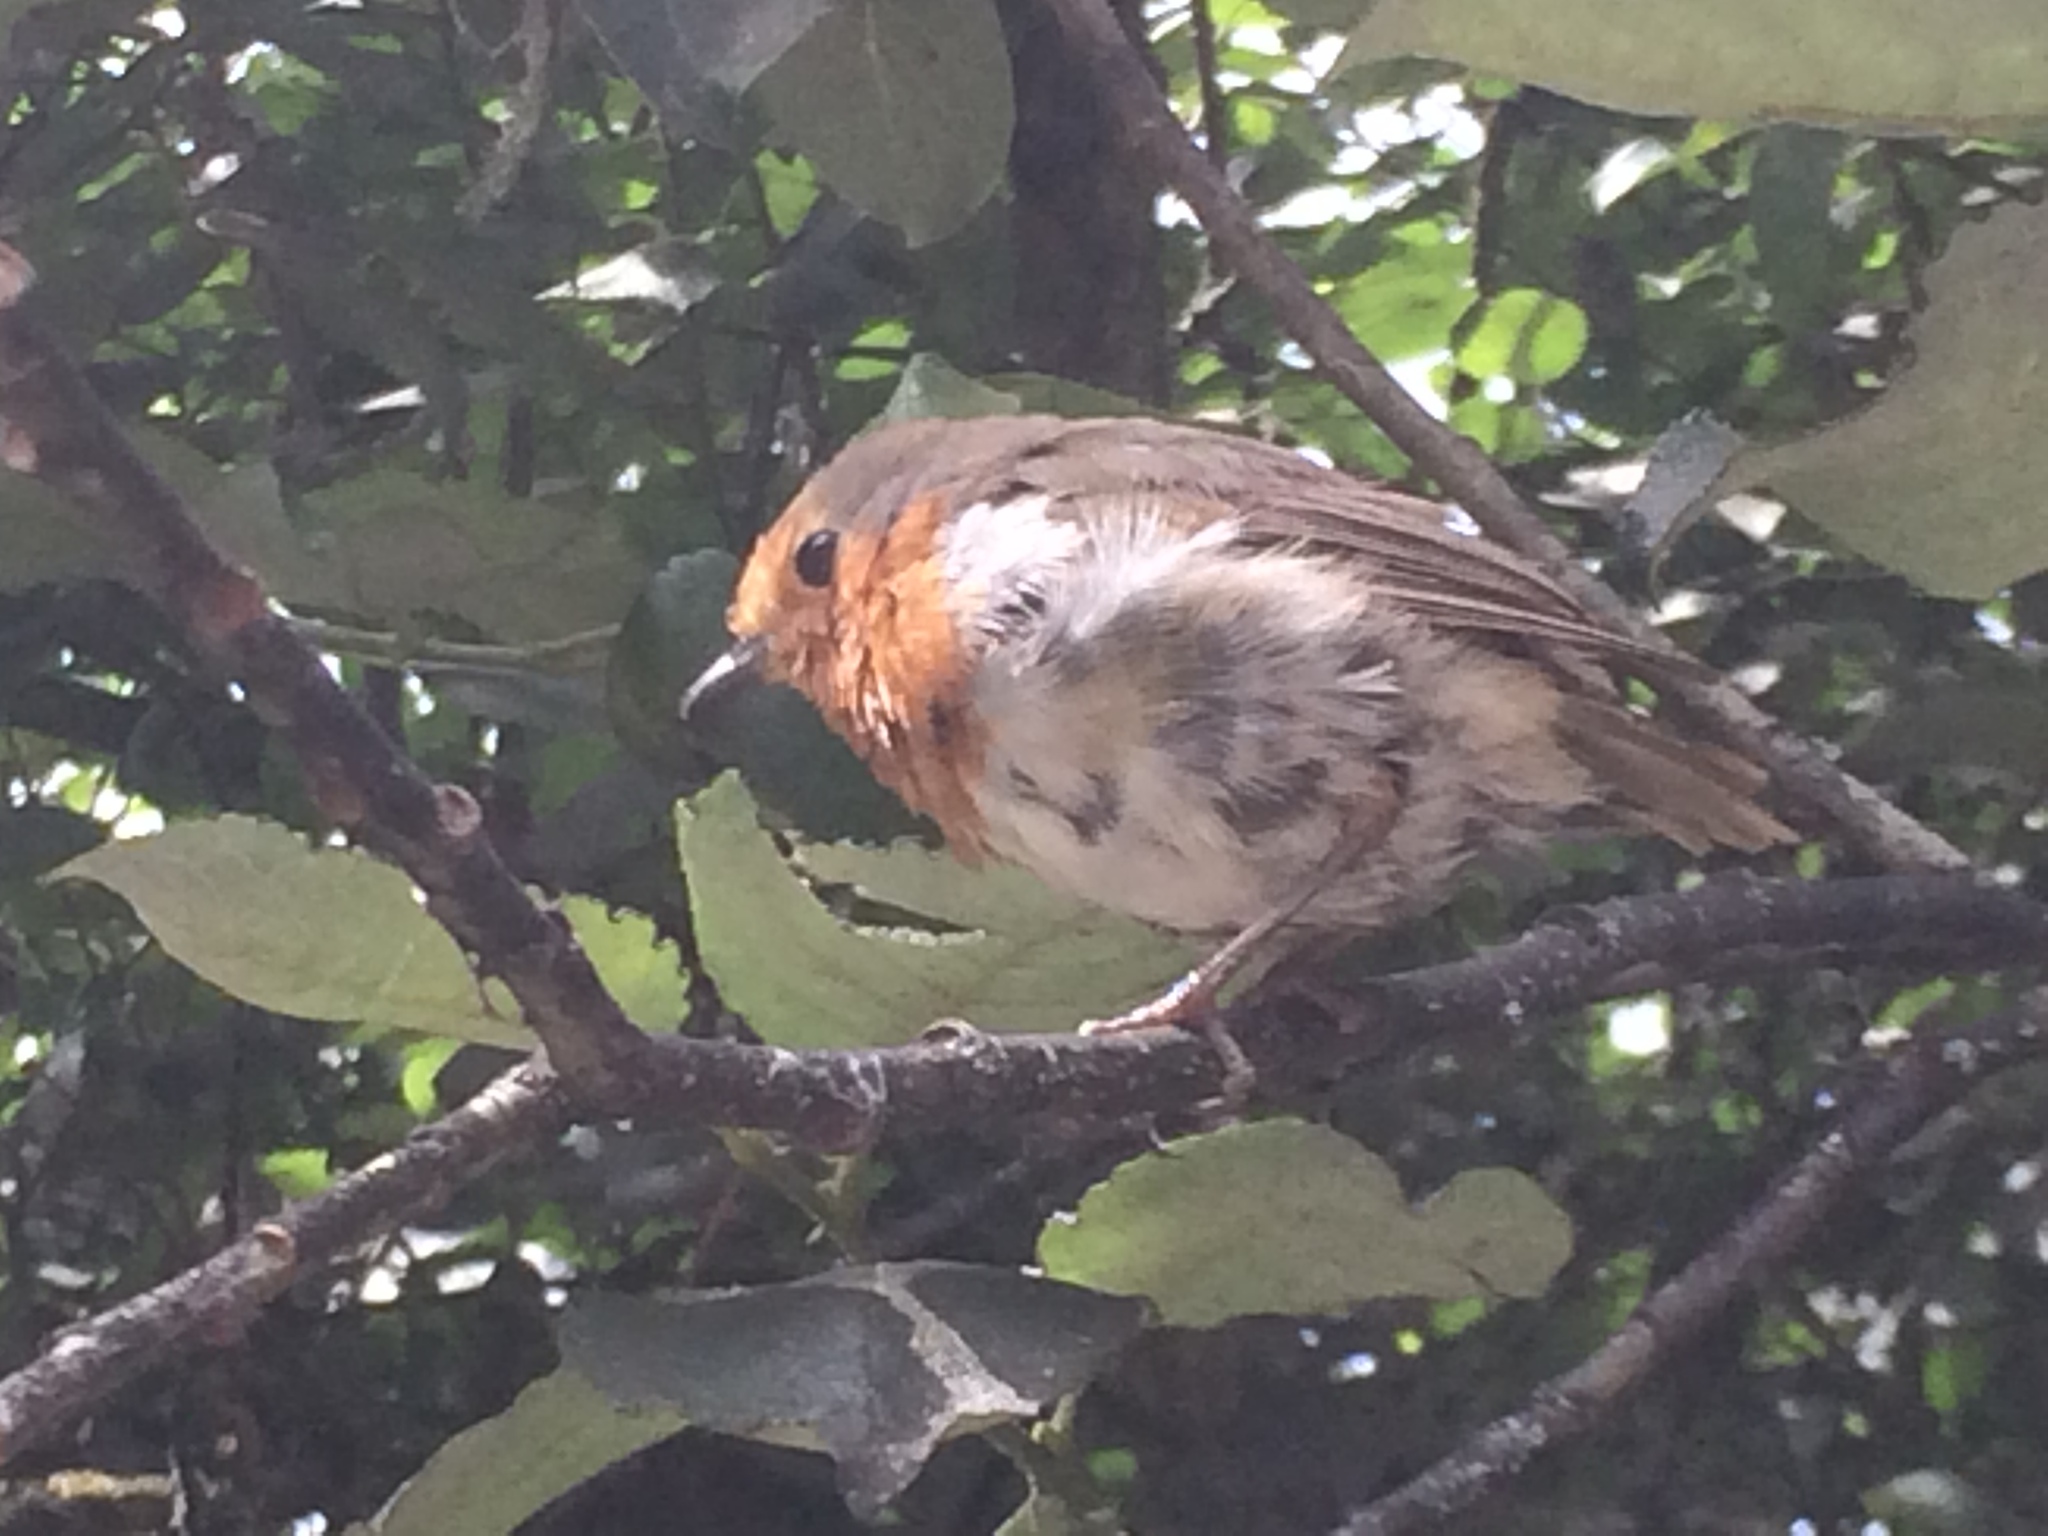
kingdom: Animalia
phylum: Chordata
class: Aves
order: Passeriformes
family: Muscicapidae
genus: Erithacus
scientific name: Erithacus rubecula
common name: European robin
